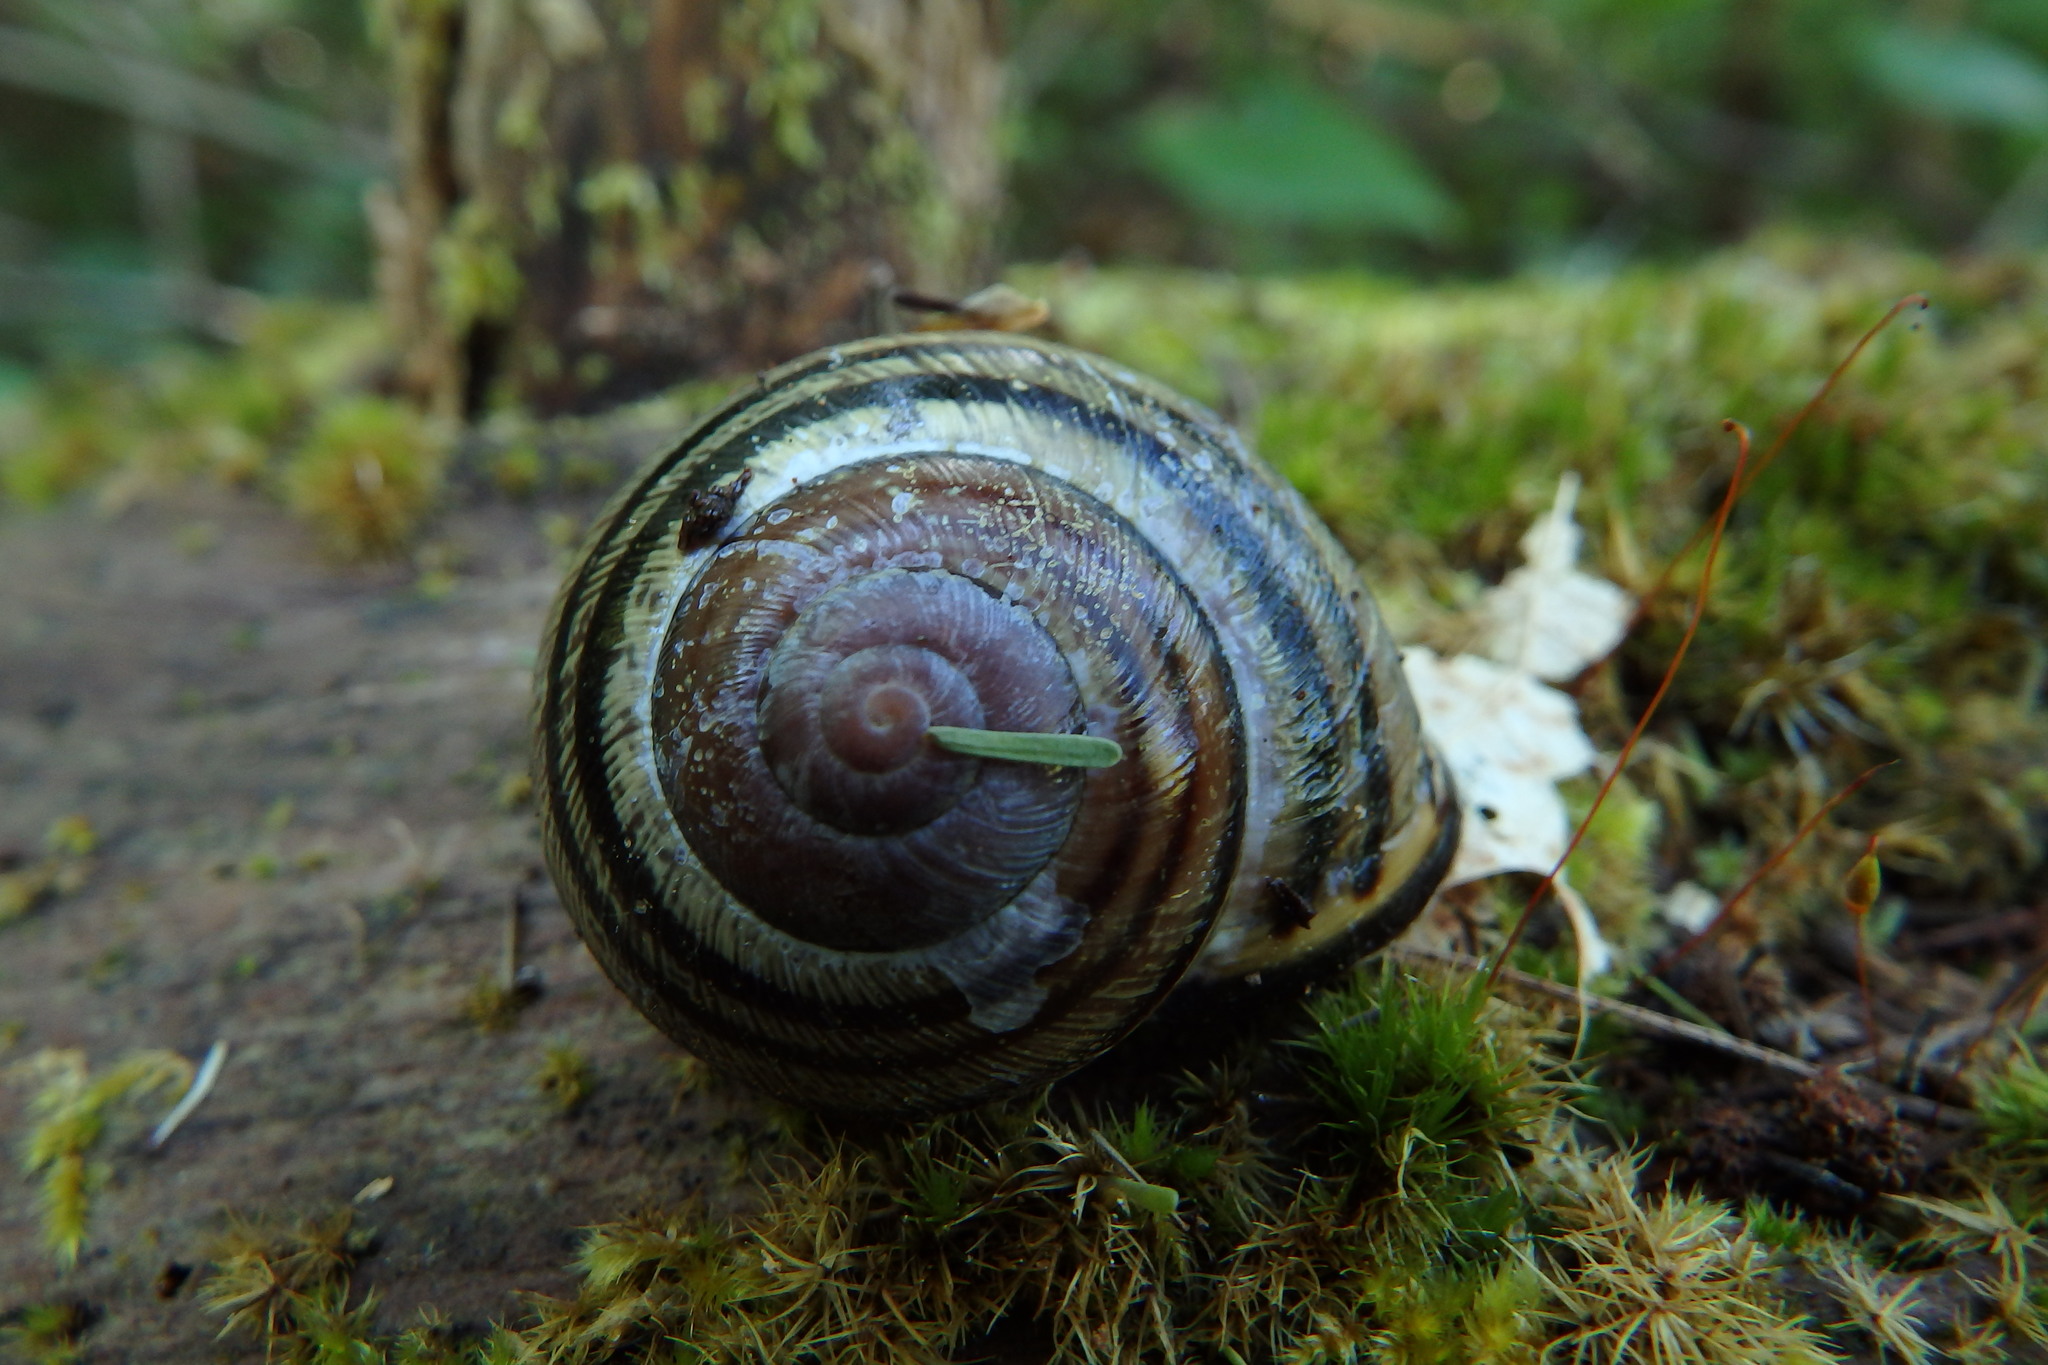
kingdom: Animalia
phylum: Mollusca
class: Gastropoda
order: Stylommatophora
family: Helicidae
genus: Cepaea
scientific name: Cepaea nemoralis
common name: Grovesnail
